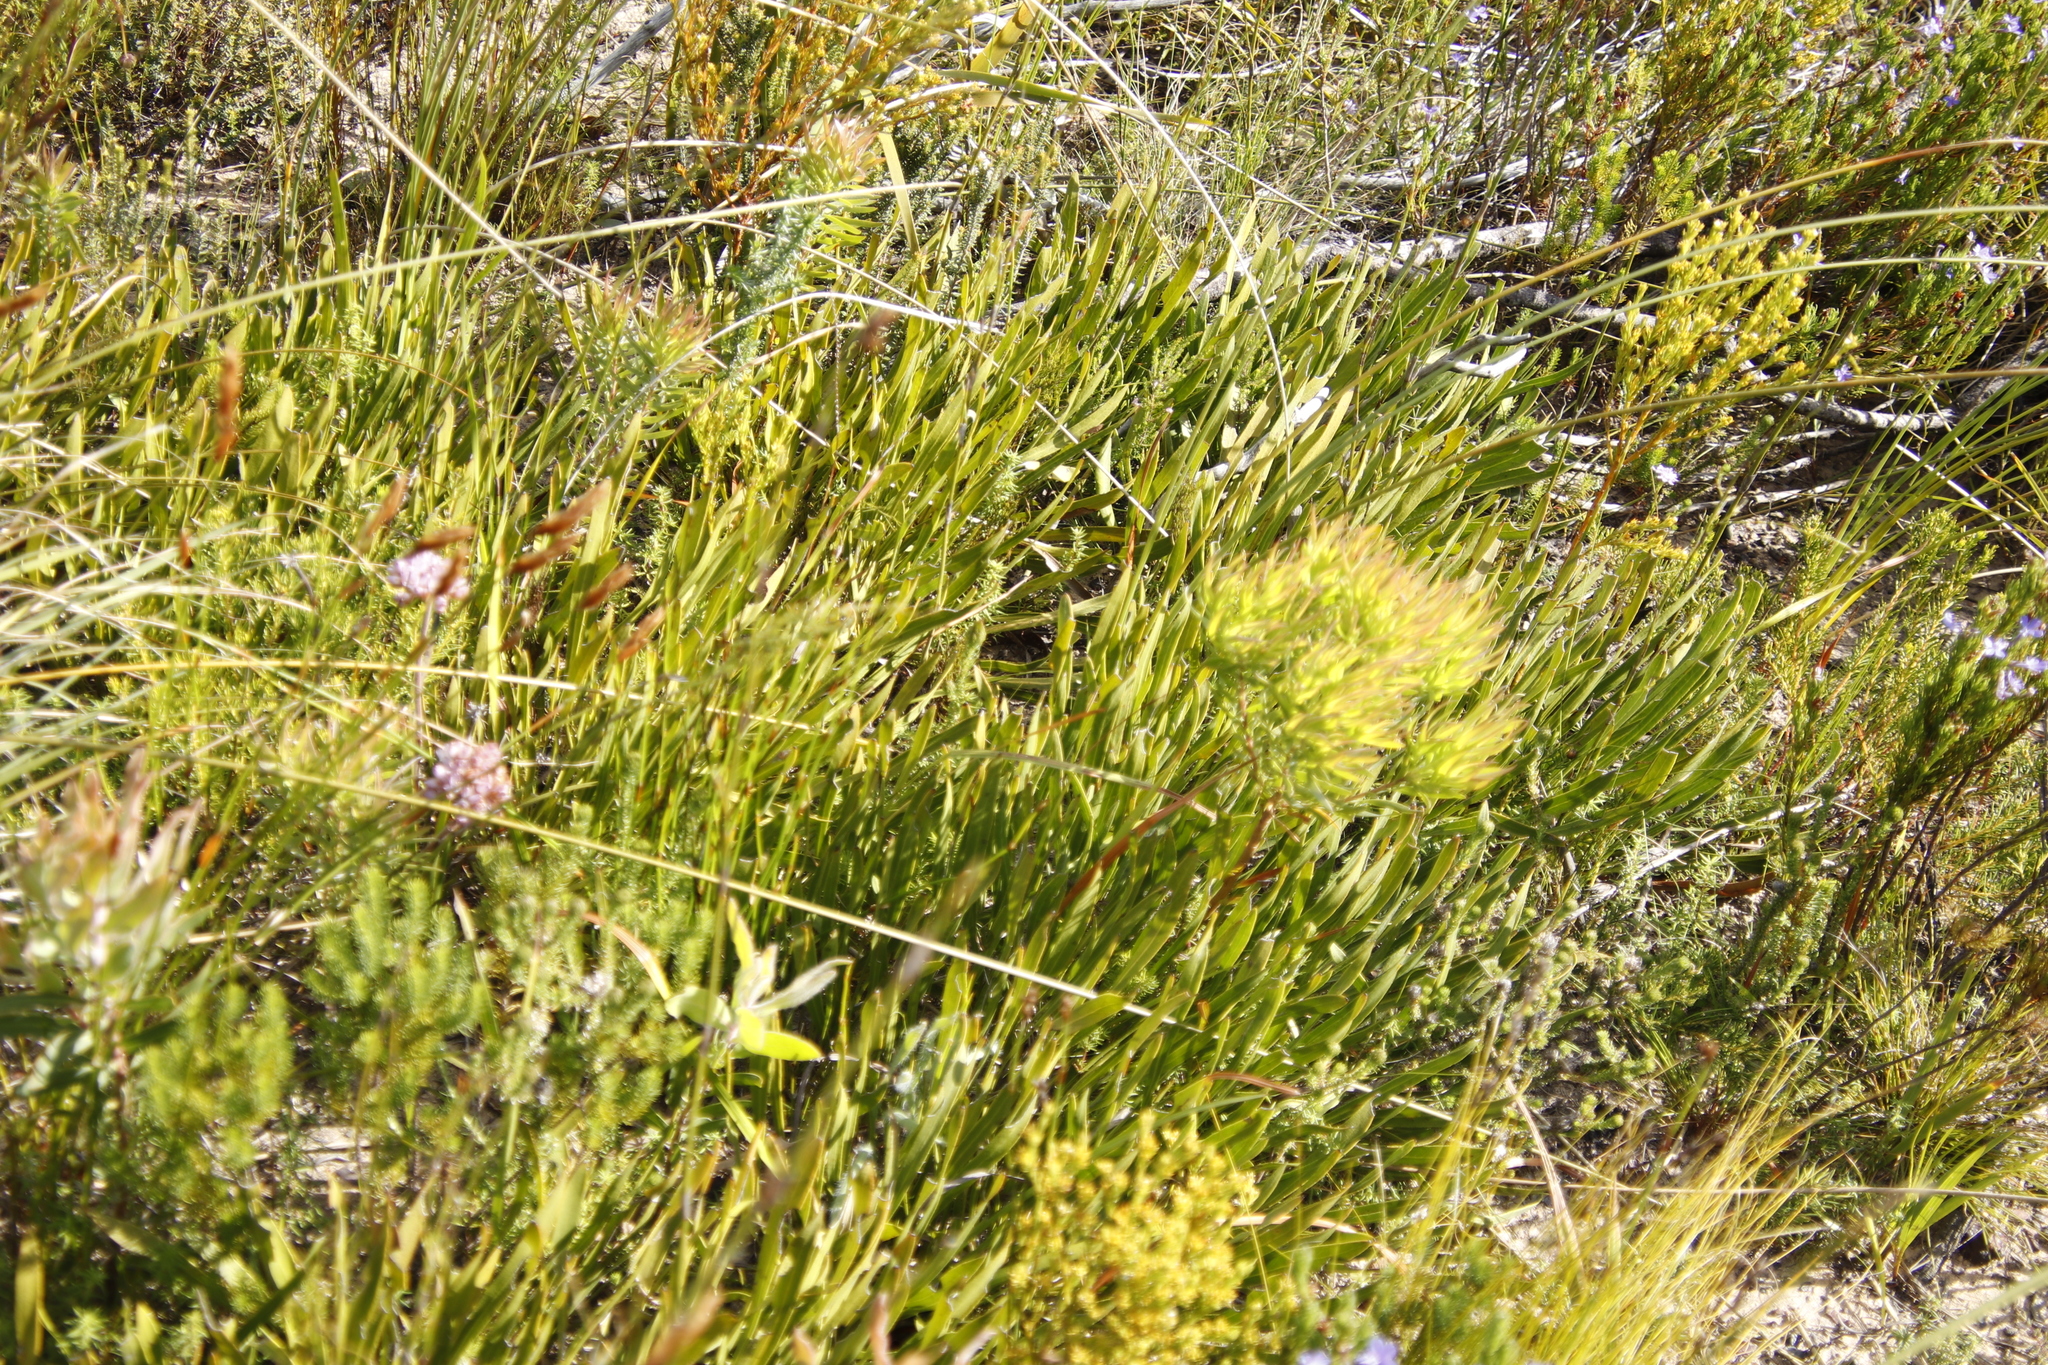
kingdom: Plantae
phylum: Tracheophyta
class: Magnoliopsida
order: Proteales
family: Proteaceae
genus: Protea
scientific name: Protea scabra
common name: Sandpaper-leaf sugarbush
